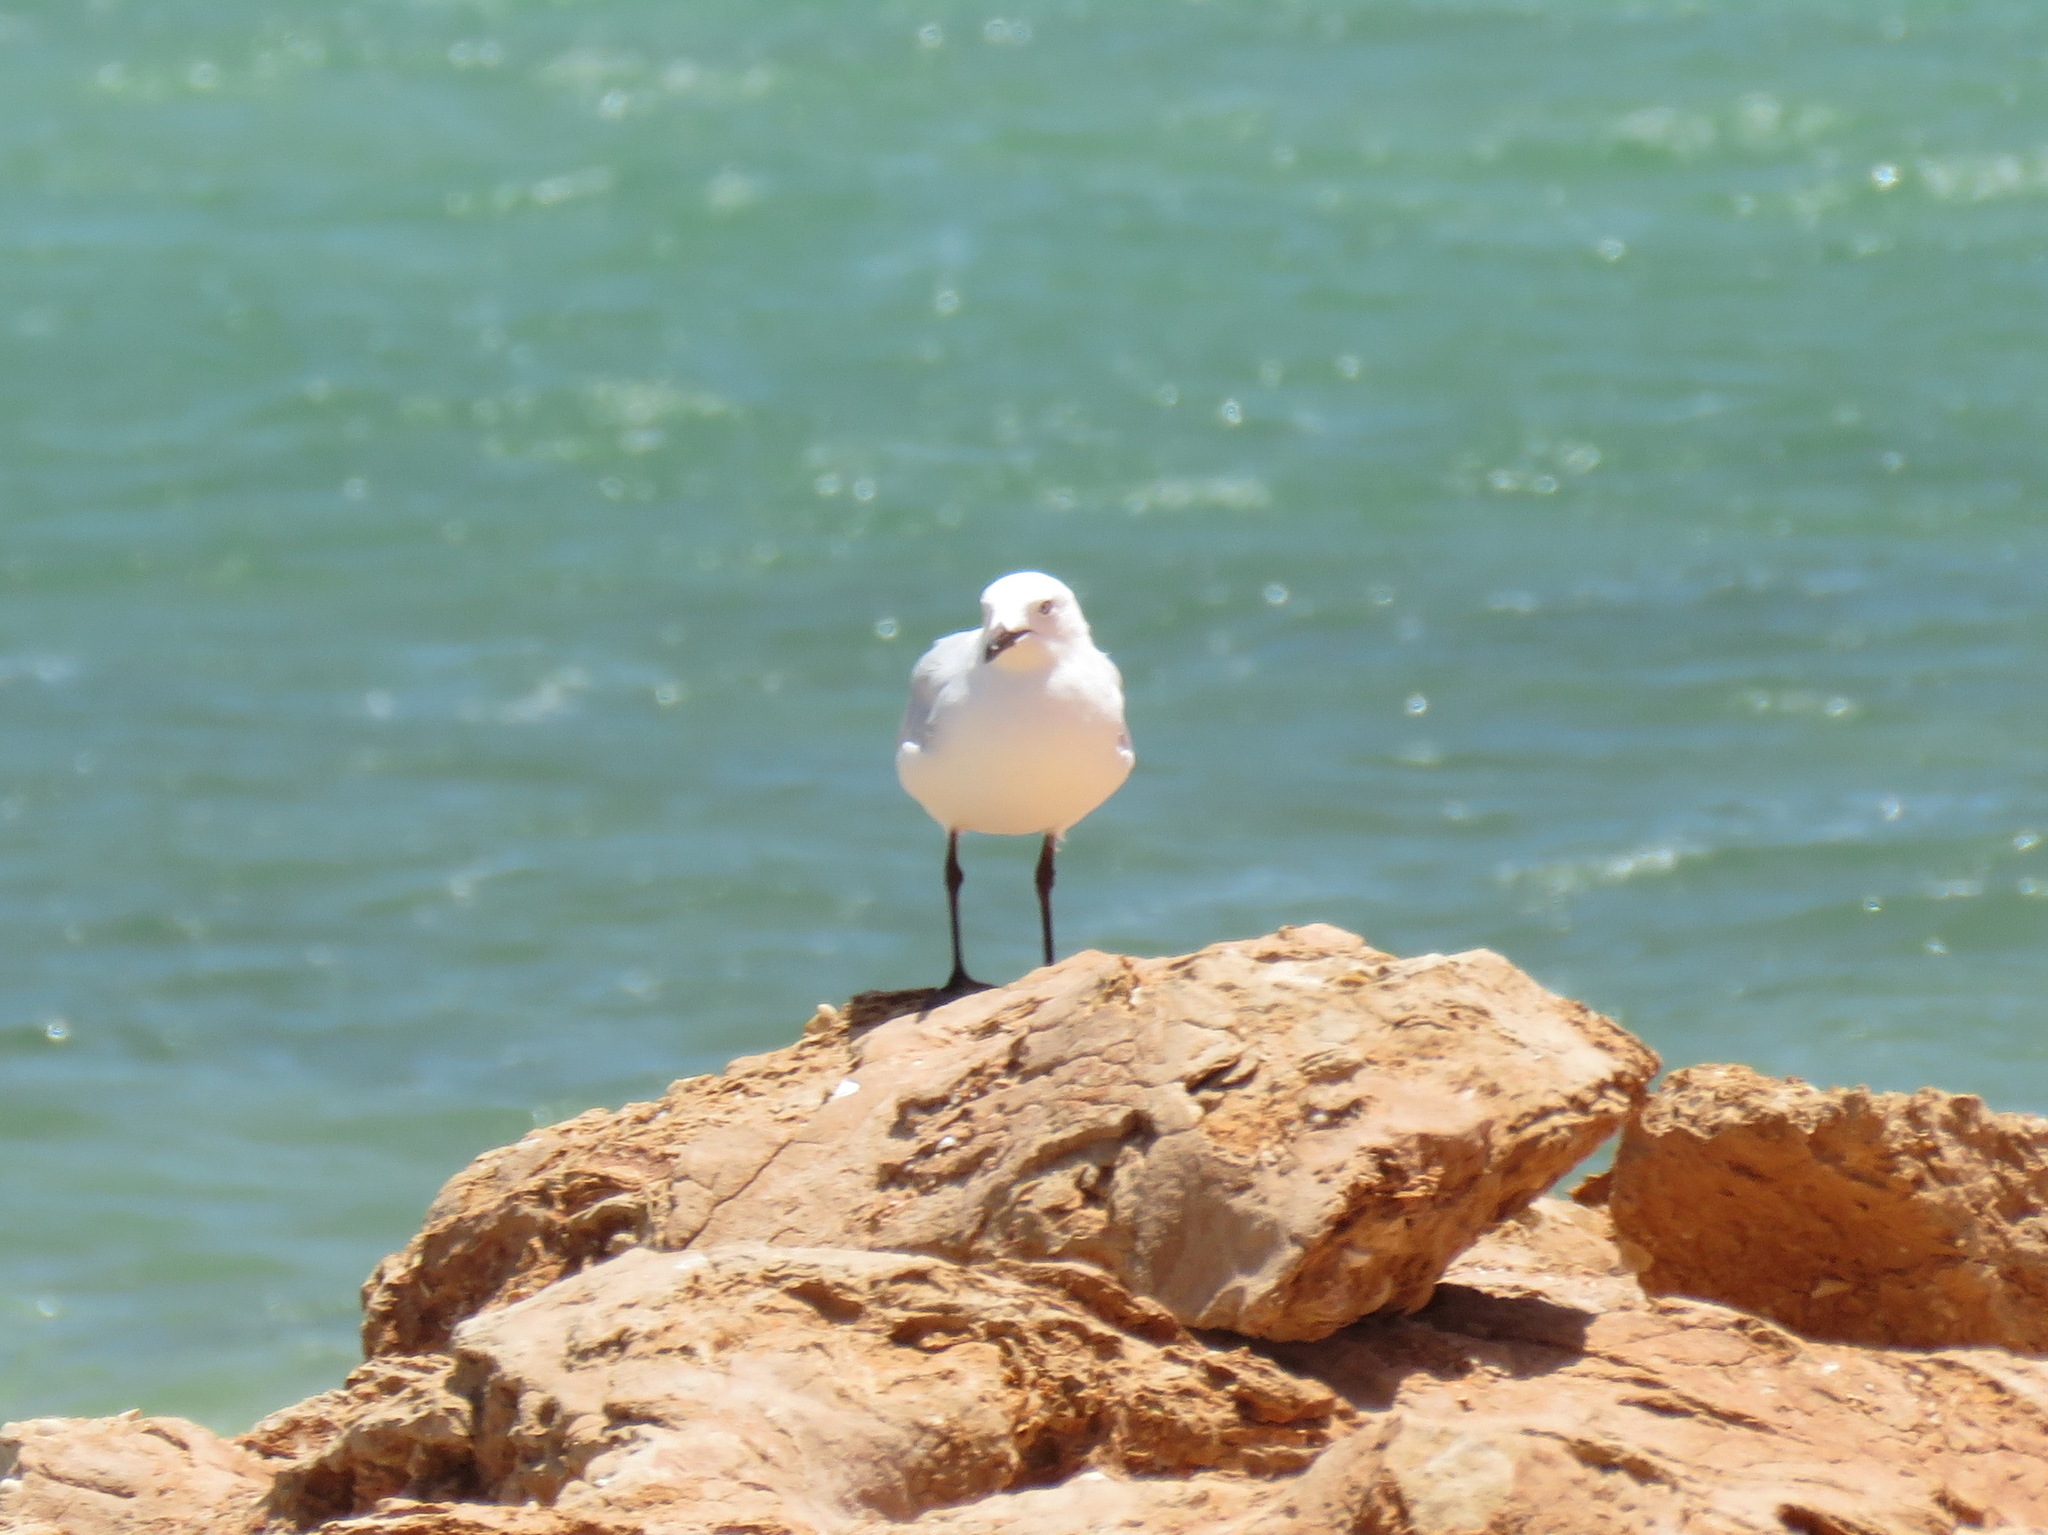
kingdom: Animalia
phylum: Chordata
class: Aves
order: Charadriiformes
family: Laridae
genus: Chroicocephalus
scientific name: Chroicocephalus novaehollandiae
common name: Silver gull
